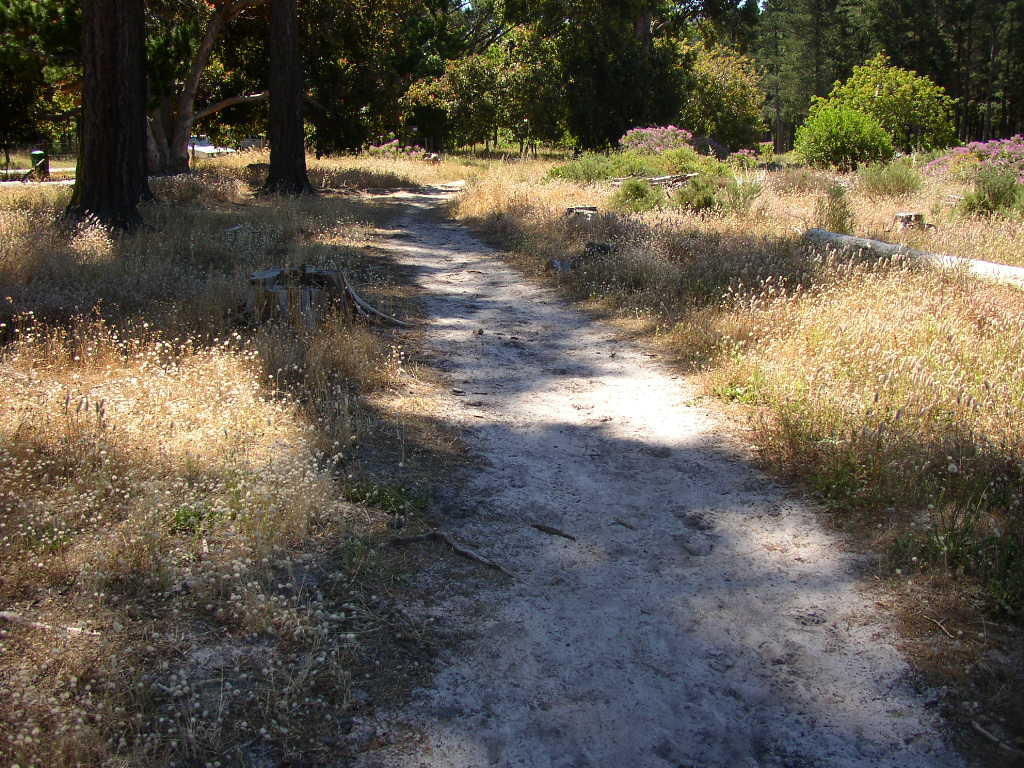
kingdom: Plantae
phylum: Tracheophyta
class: Liliopsida
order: Poales
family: Poaceae
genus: Lagurus
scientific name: Lagurus ovatus
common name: Hare's-tail
